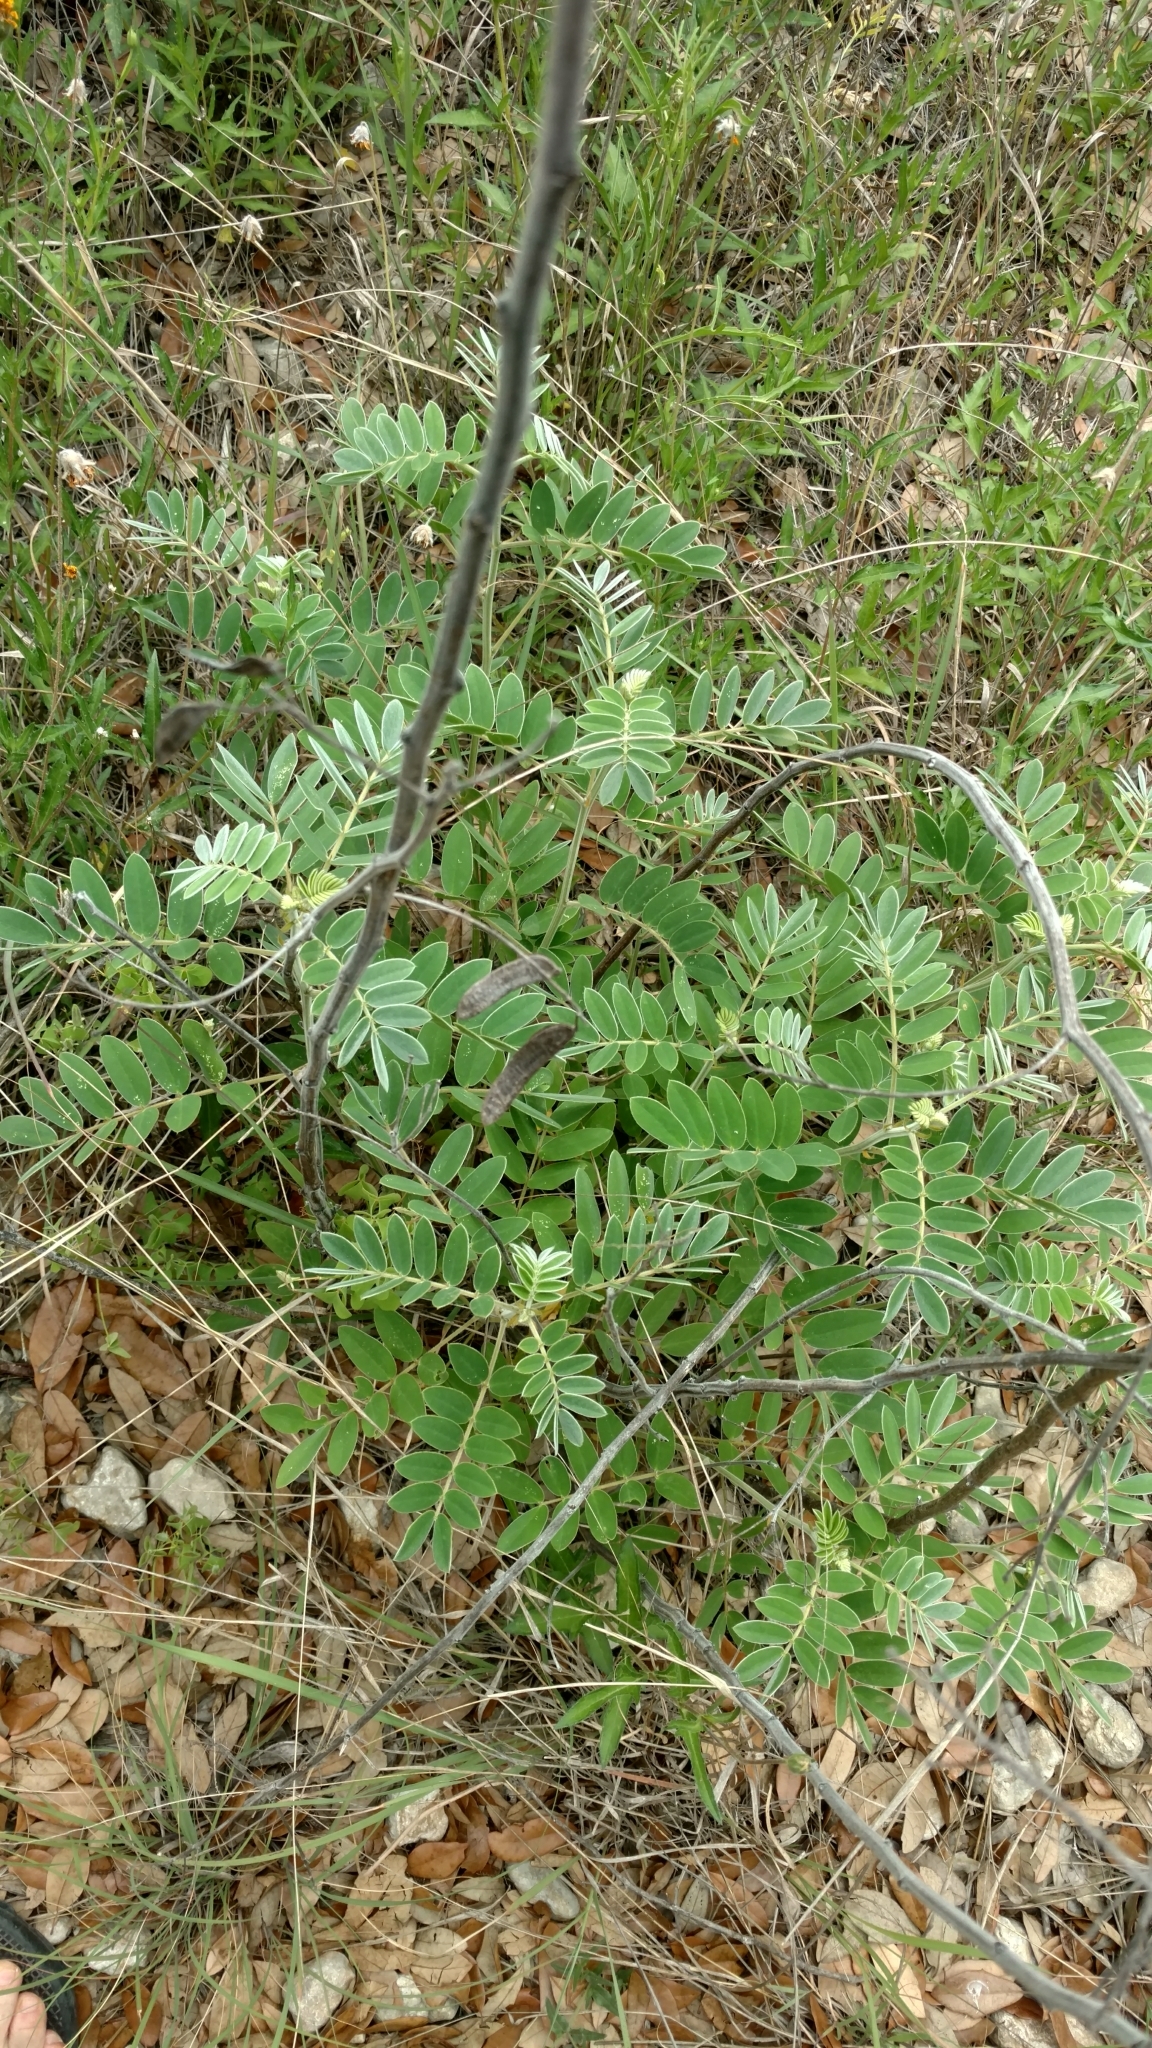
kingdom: Plantae
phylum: Tracheophyta
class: Magnoliopsida
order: Fabales
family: Fabaceae
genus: Senna
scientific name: Senna lindheimeriana
